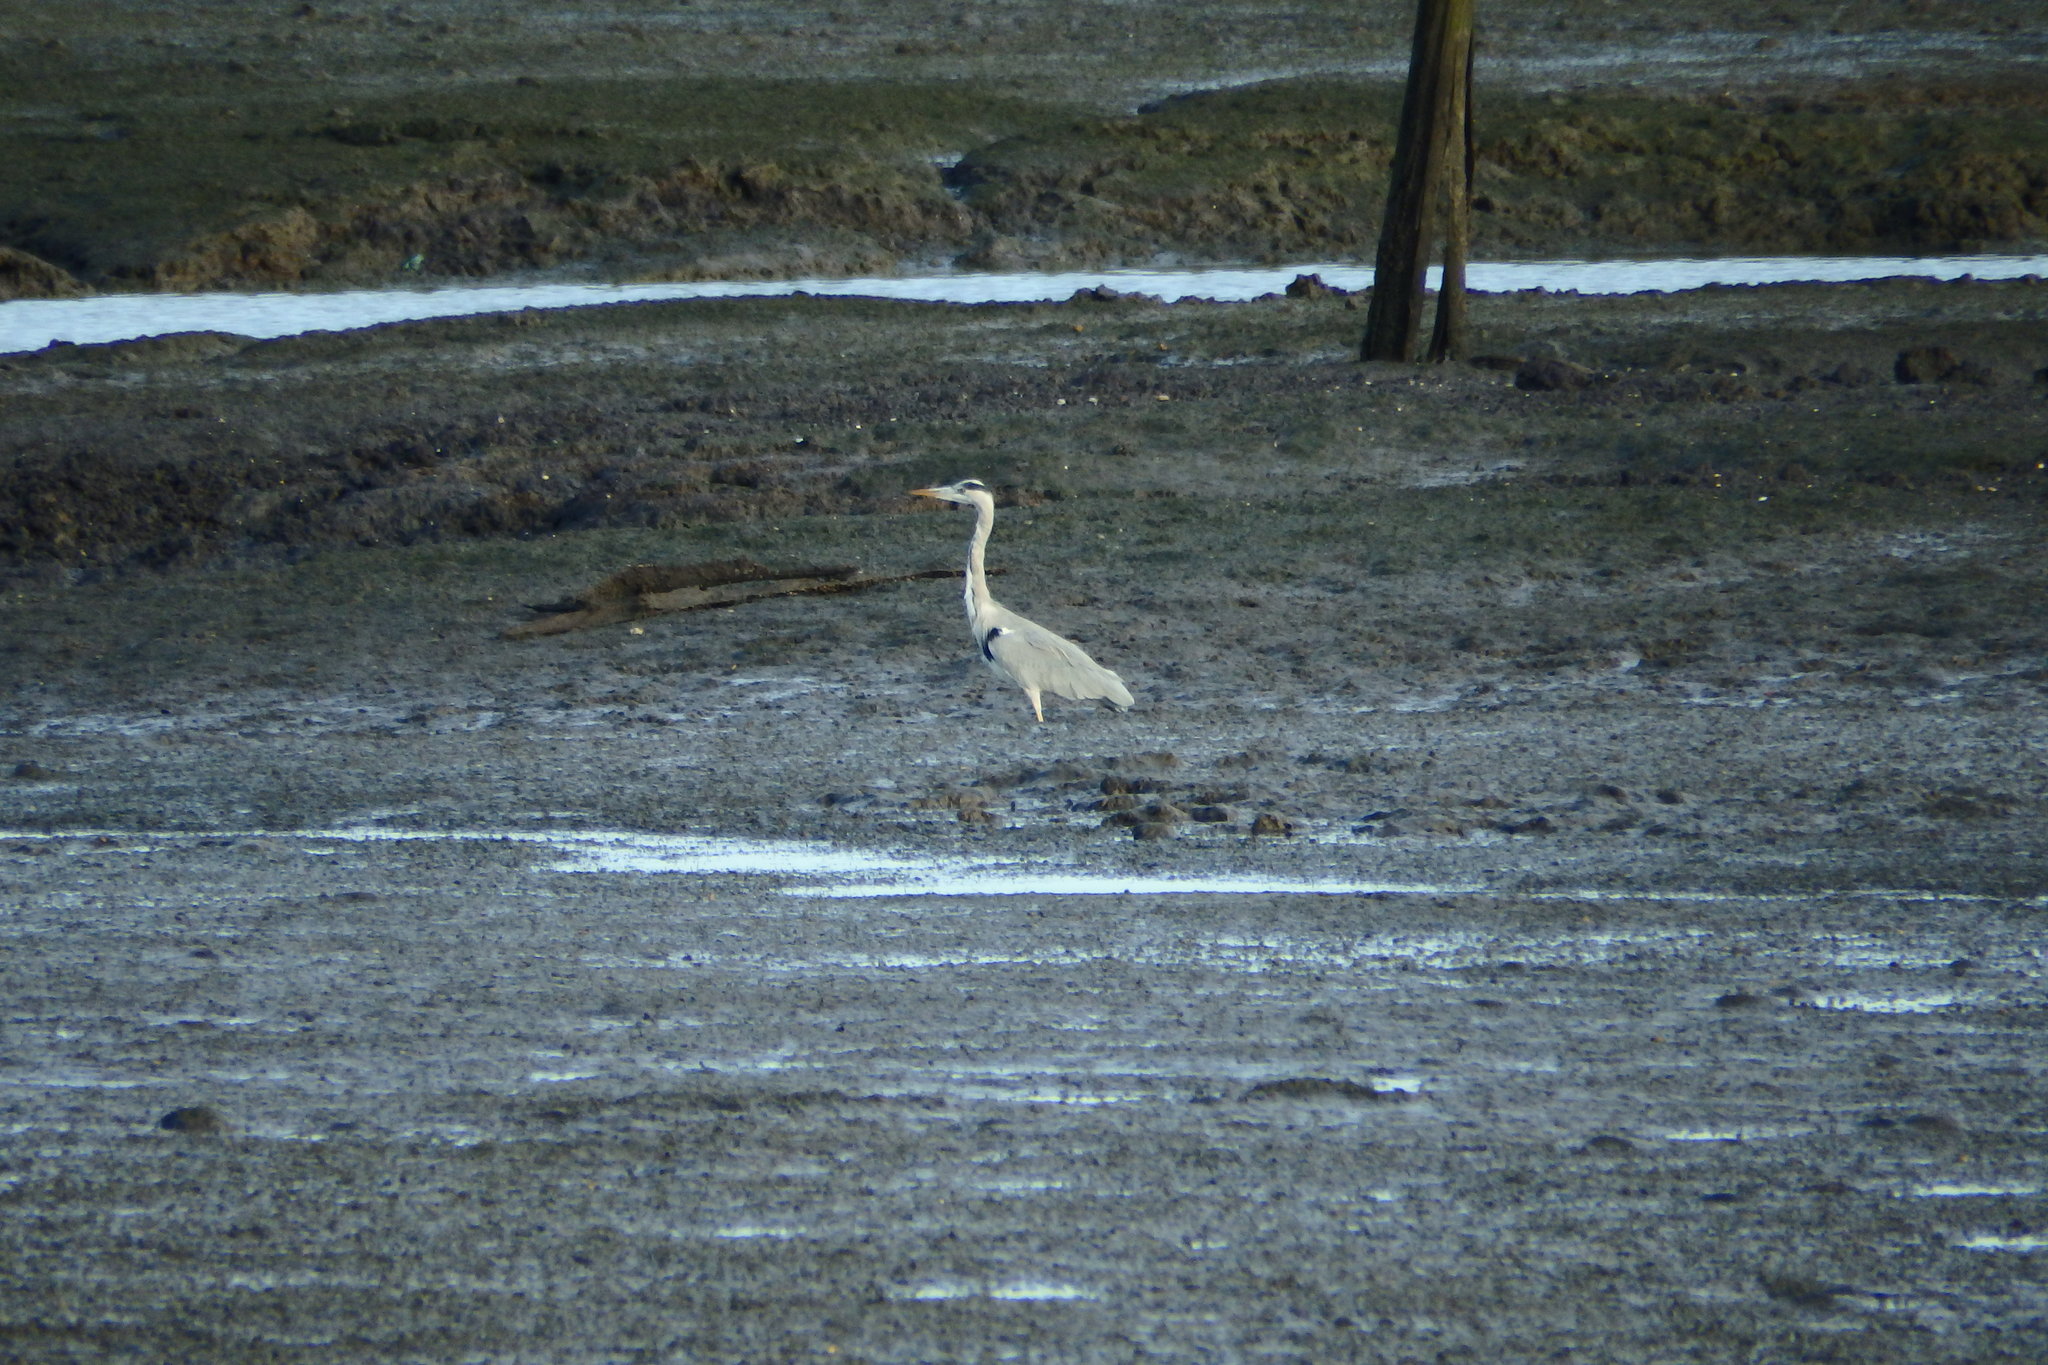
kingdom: Animalia
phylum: Chordata
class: Aves
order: Pelecaniformes
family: Ardeidae
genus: Ardea
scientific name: Ardea cinerea
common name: Grey heron
